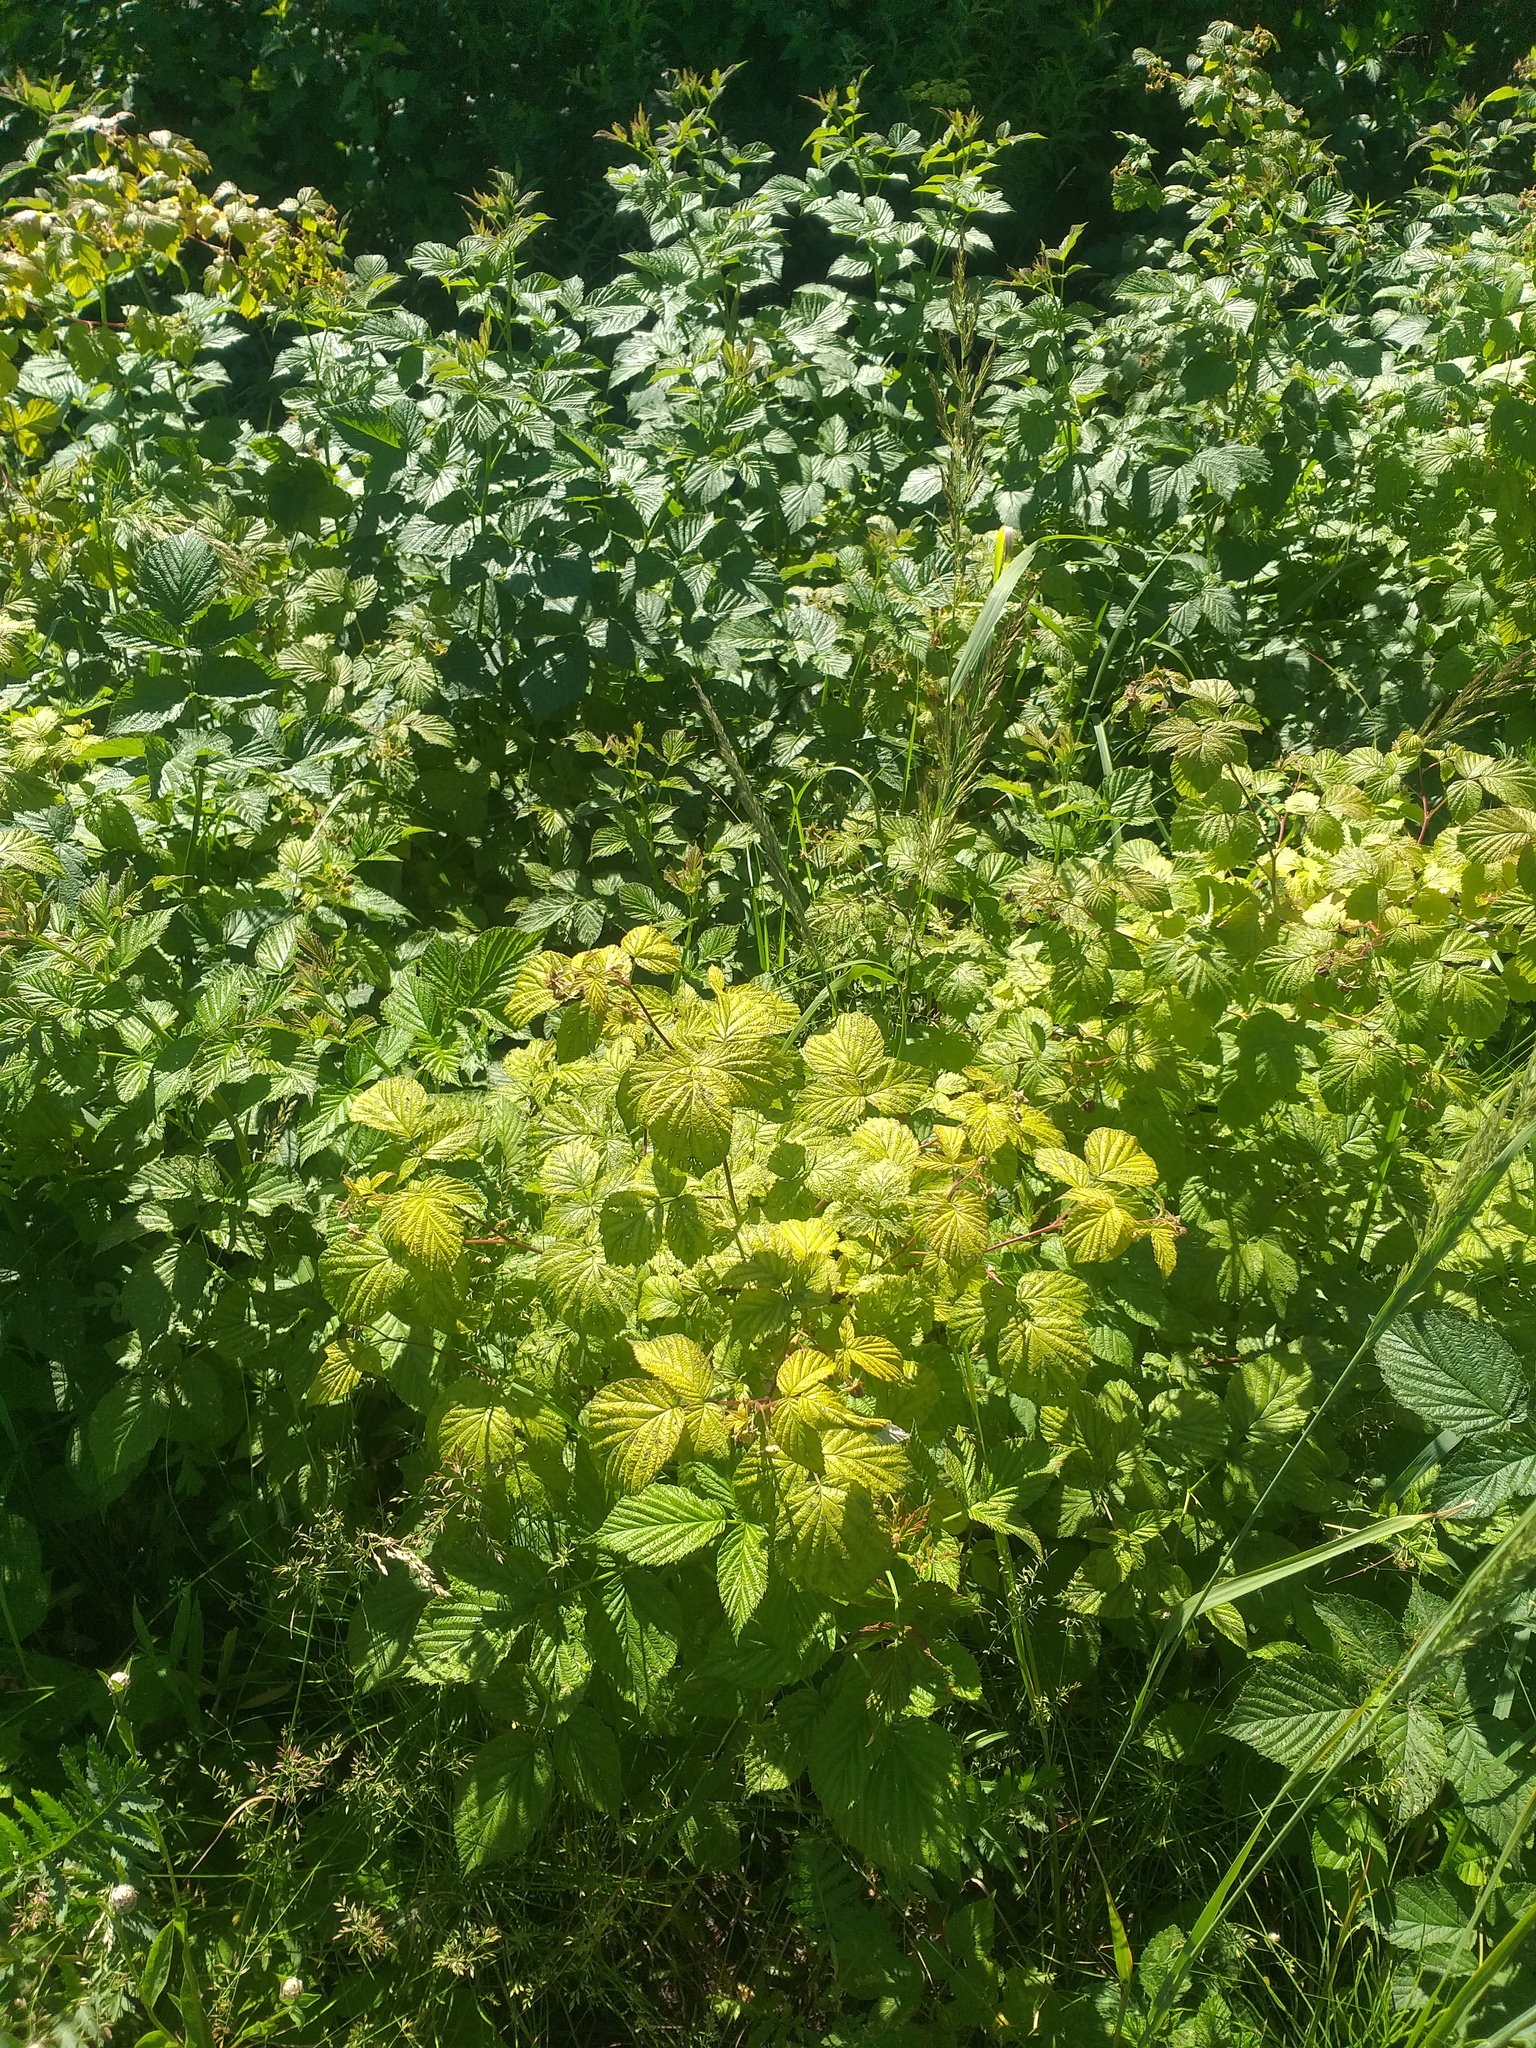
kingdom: Plantae
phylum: Tracheophyta
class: Magnoliopsida
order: Rosales
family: Rosaceae
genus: Rubus
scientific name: Rubus idaeus
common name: Raspberry
